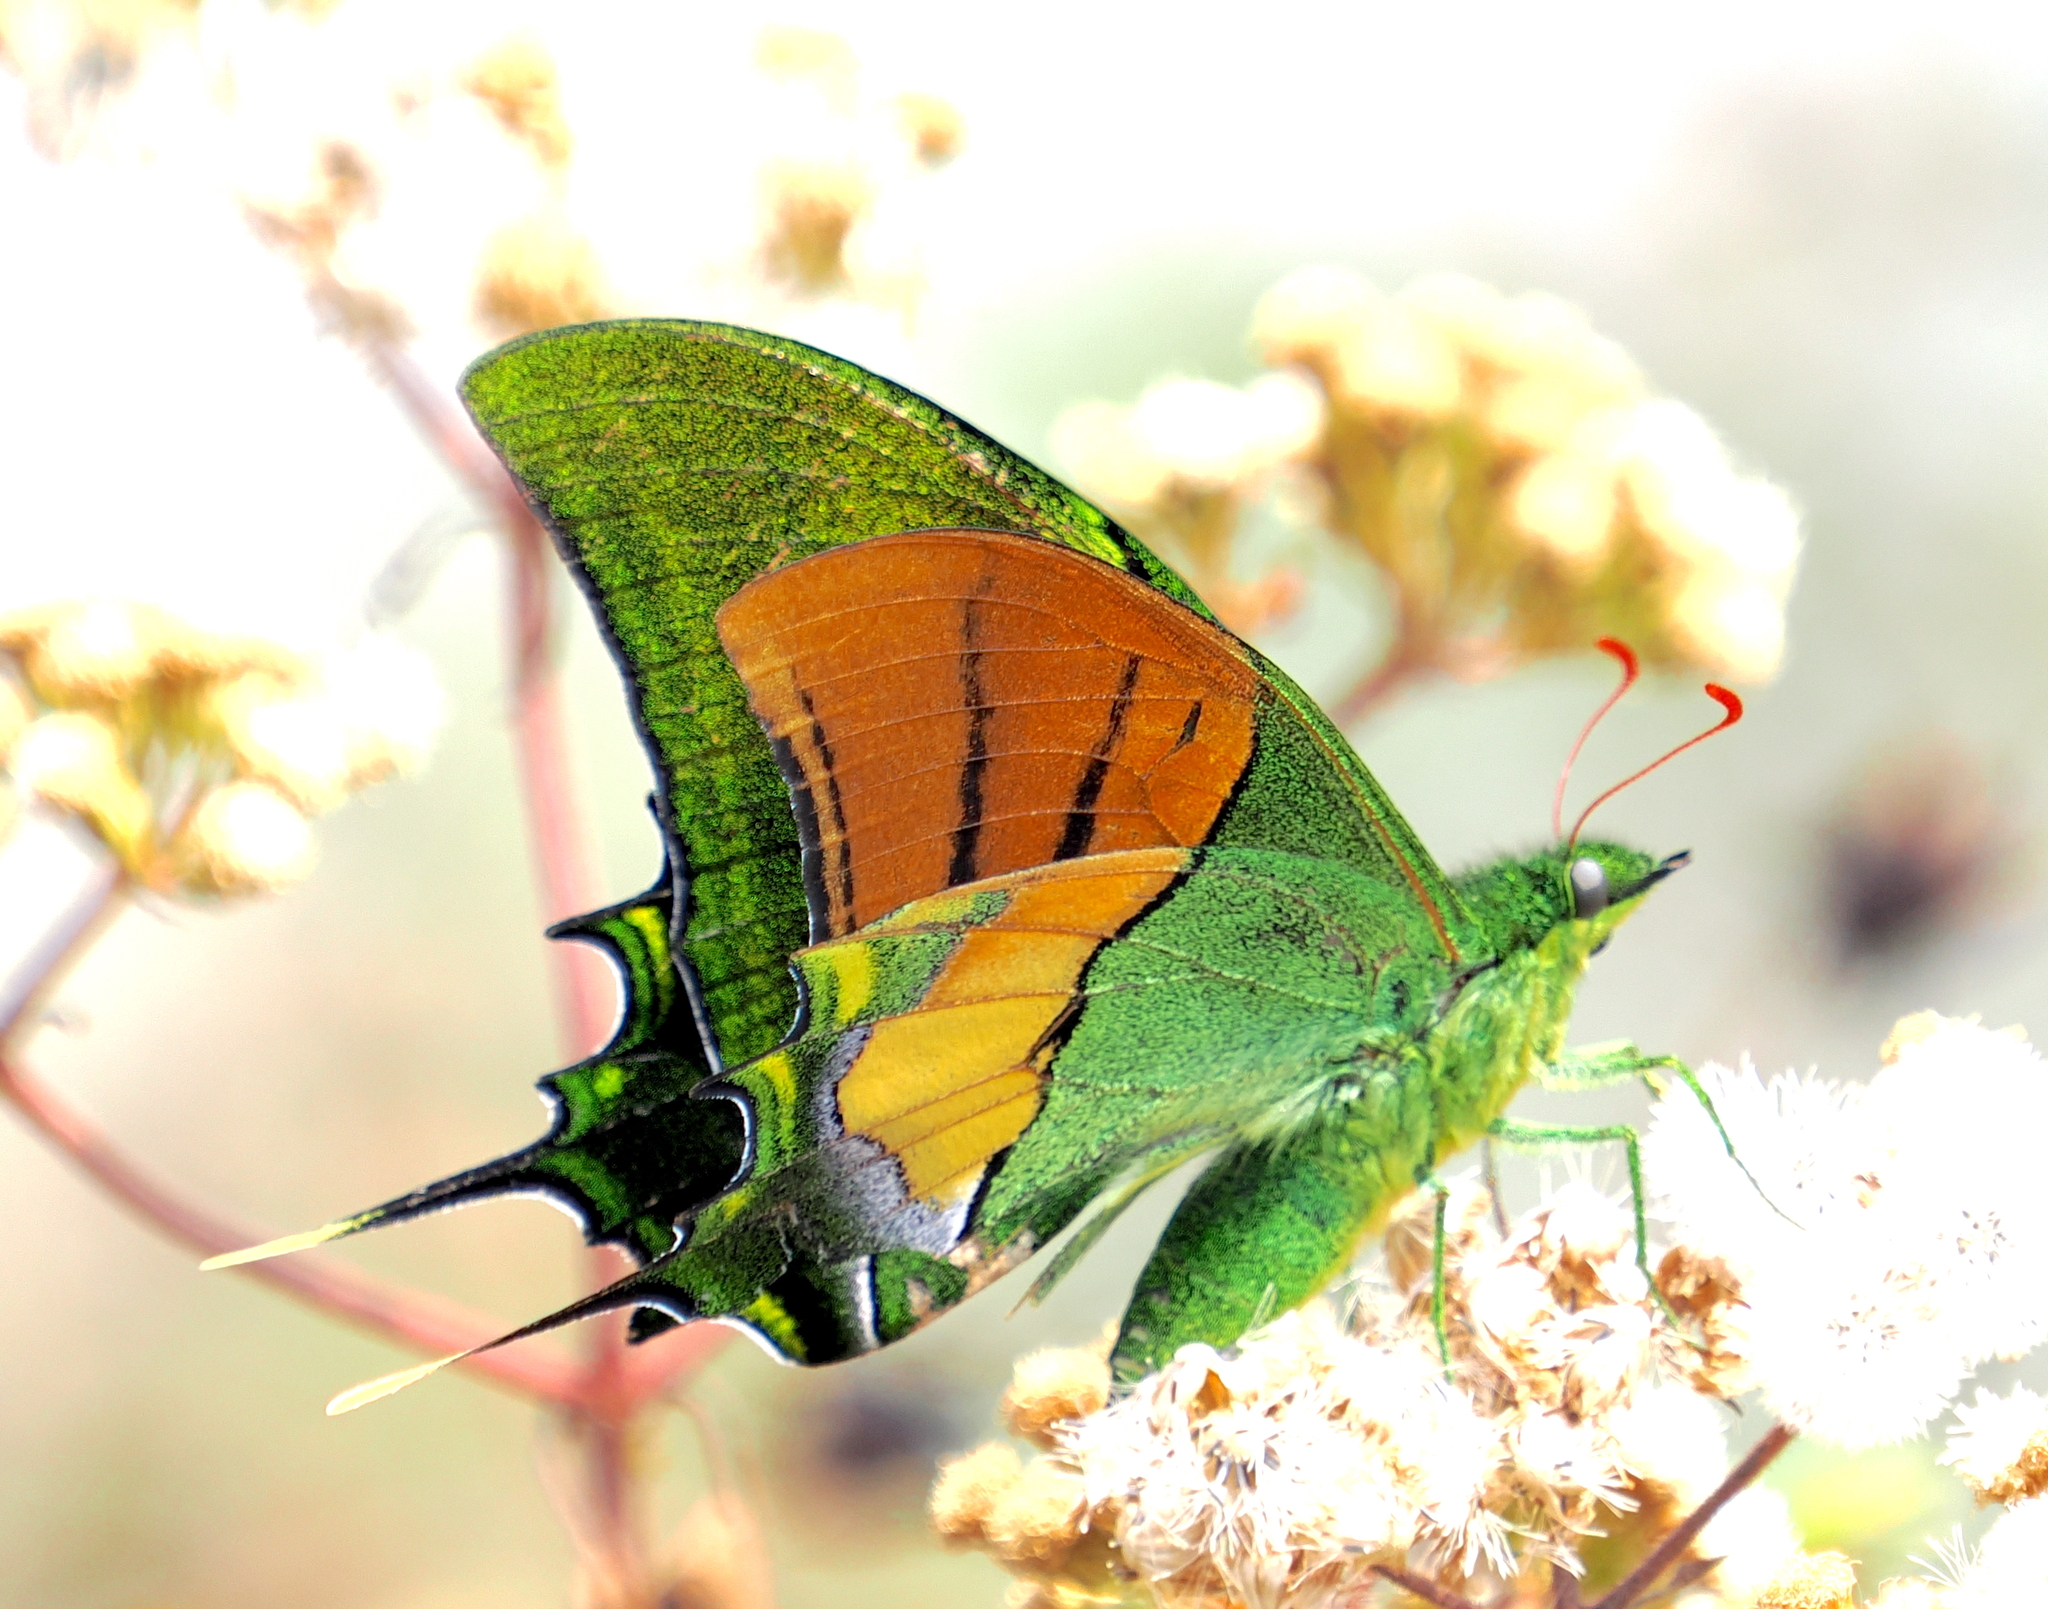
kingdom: Animalia
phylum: Arthropoda
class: Insecta
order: Lepidoptera
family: Papilionidae
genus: Teinopalpus
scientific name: Teinopalpus imperialis
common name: Kaiser-i-hind
